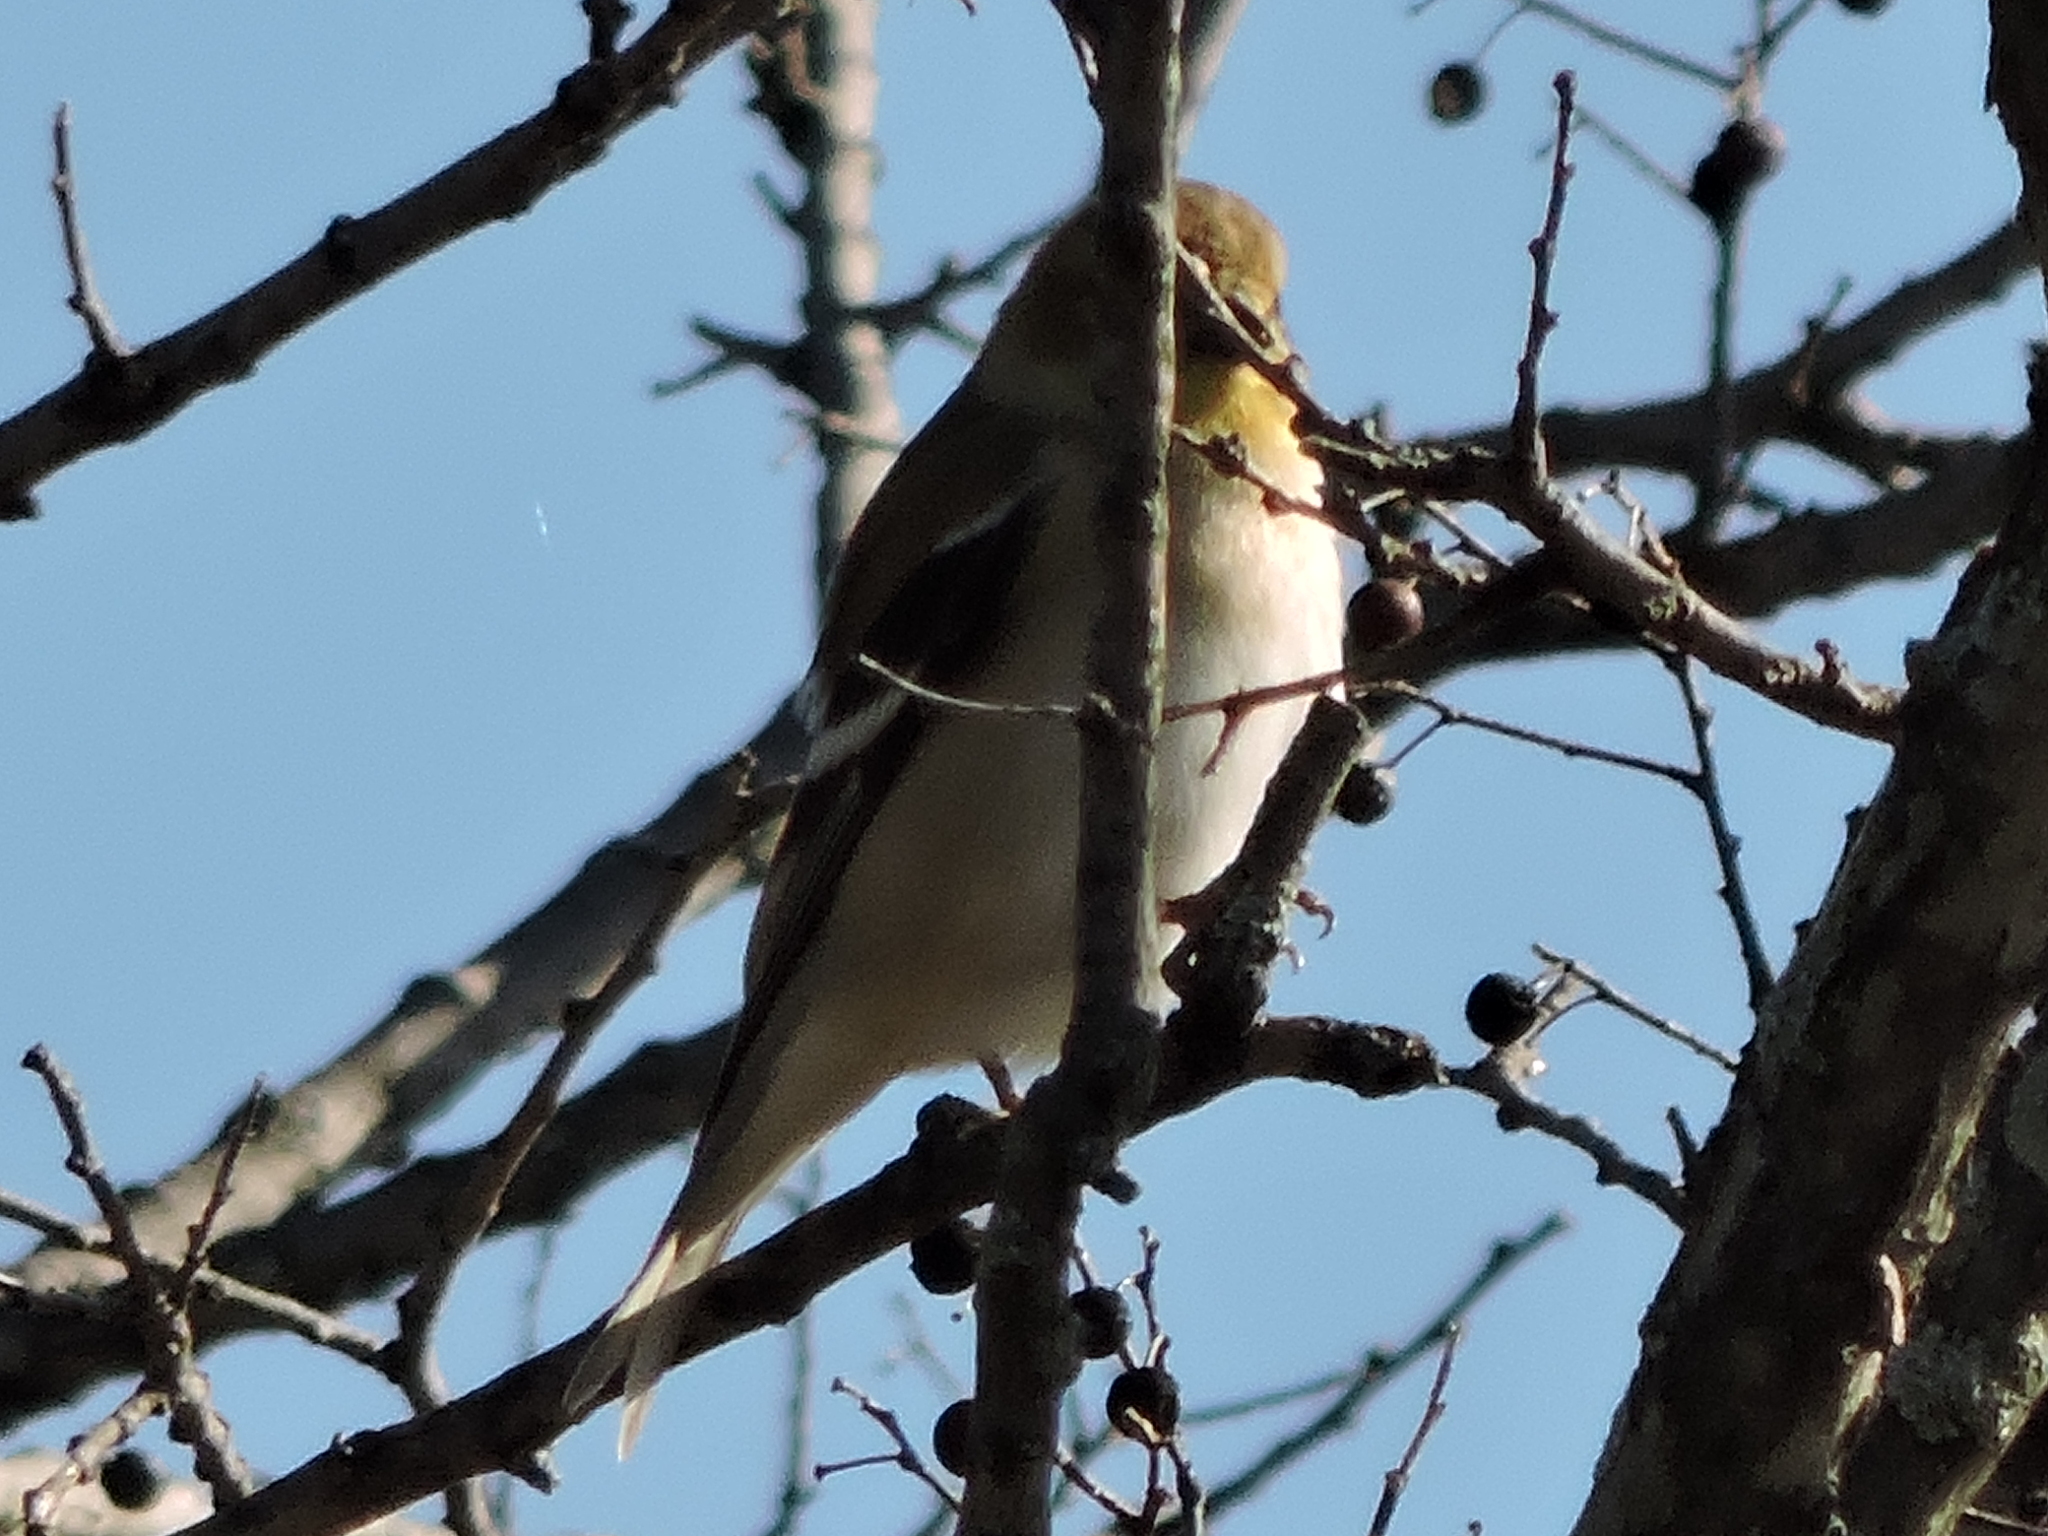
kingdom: Animalia
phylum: Chordata
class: Aves
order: Passeriformes
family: Fringillidae
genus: Spinus
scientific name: Spinus tristis
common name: American goldfinch
